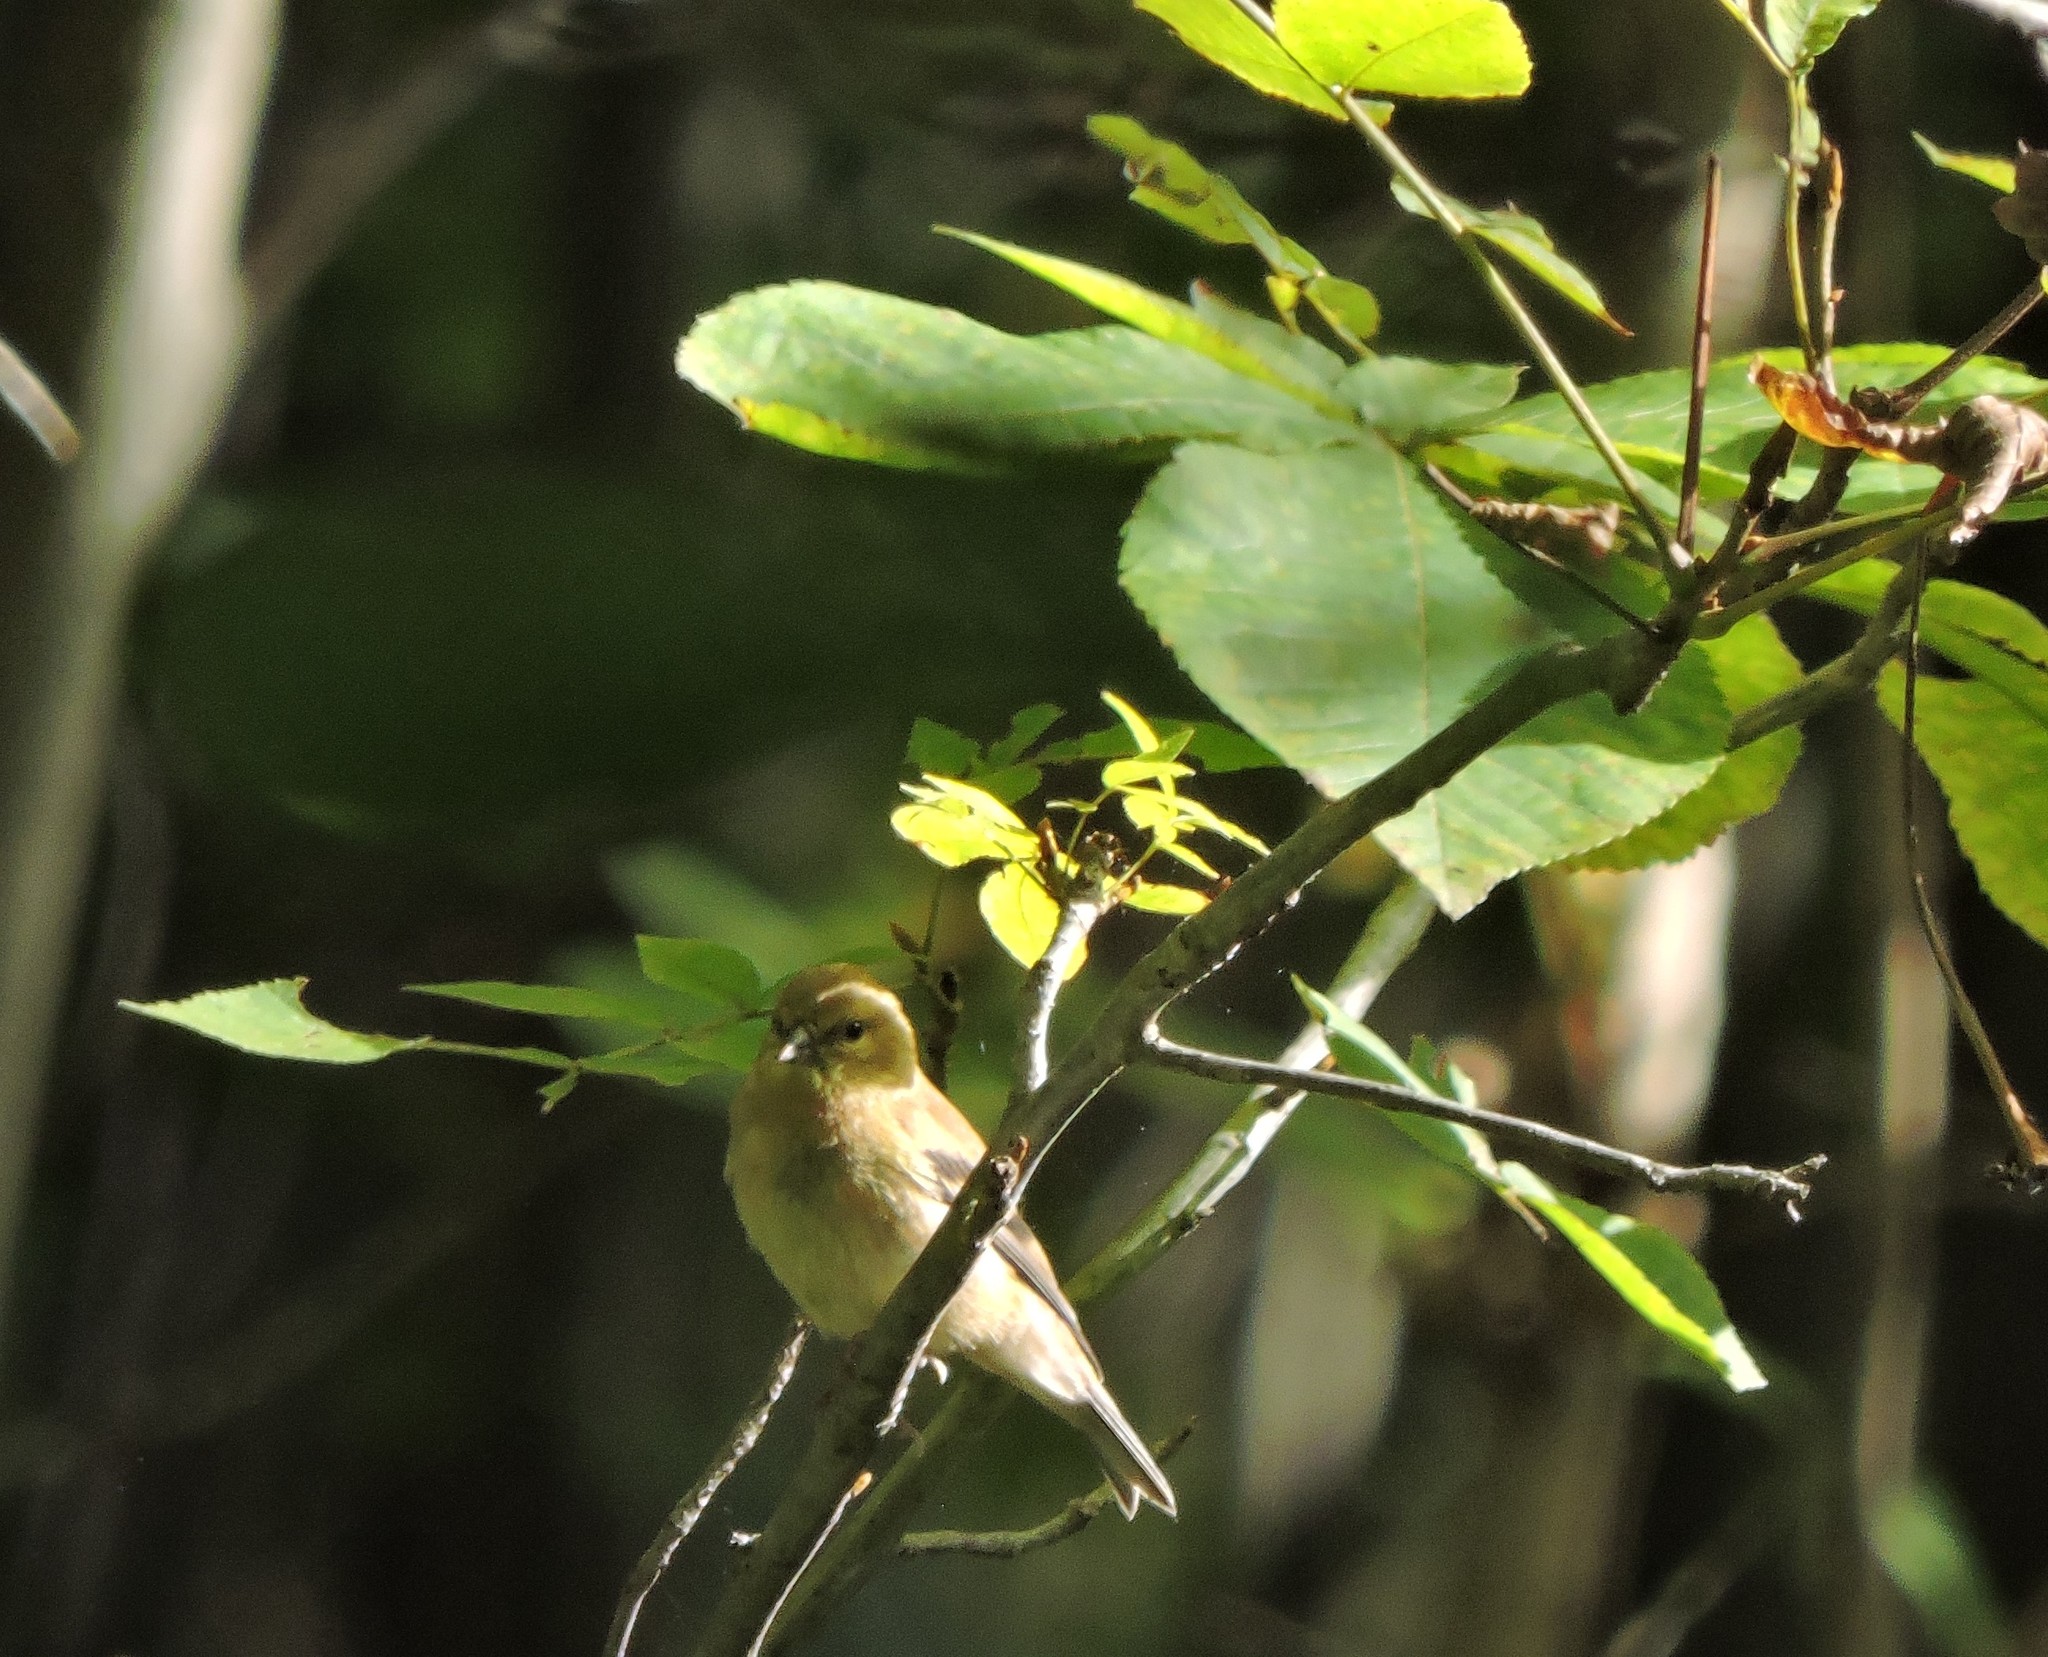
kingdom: Animalia
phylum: Chordata
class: Aves
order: Passeriformes
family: Fringillidae
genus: Spinus
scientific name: Spinus tristis
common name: American goldfinch
